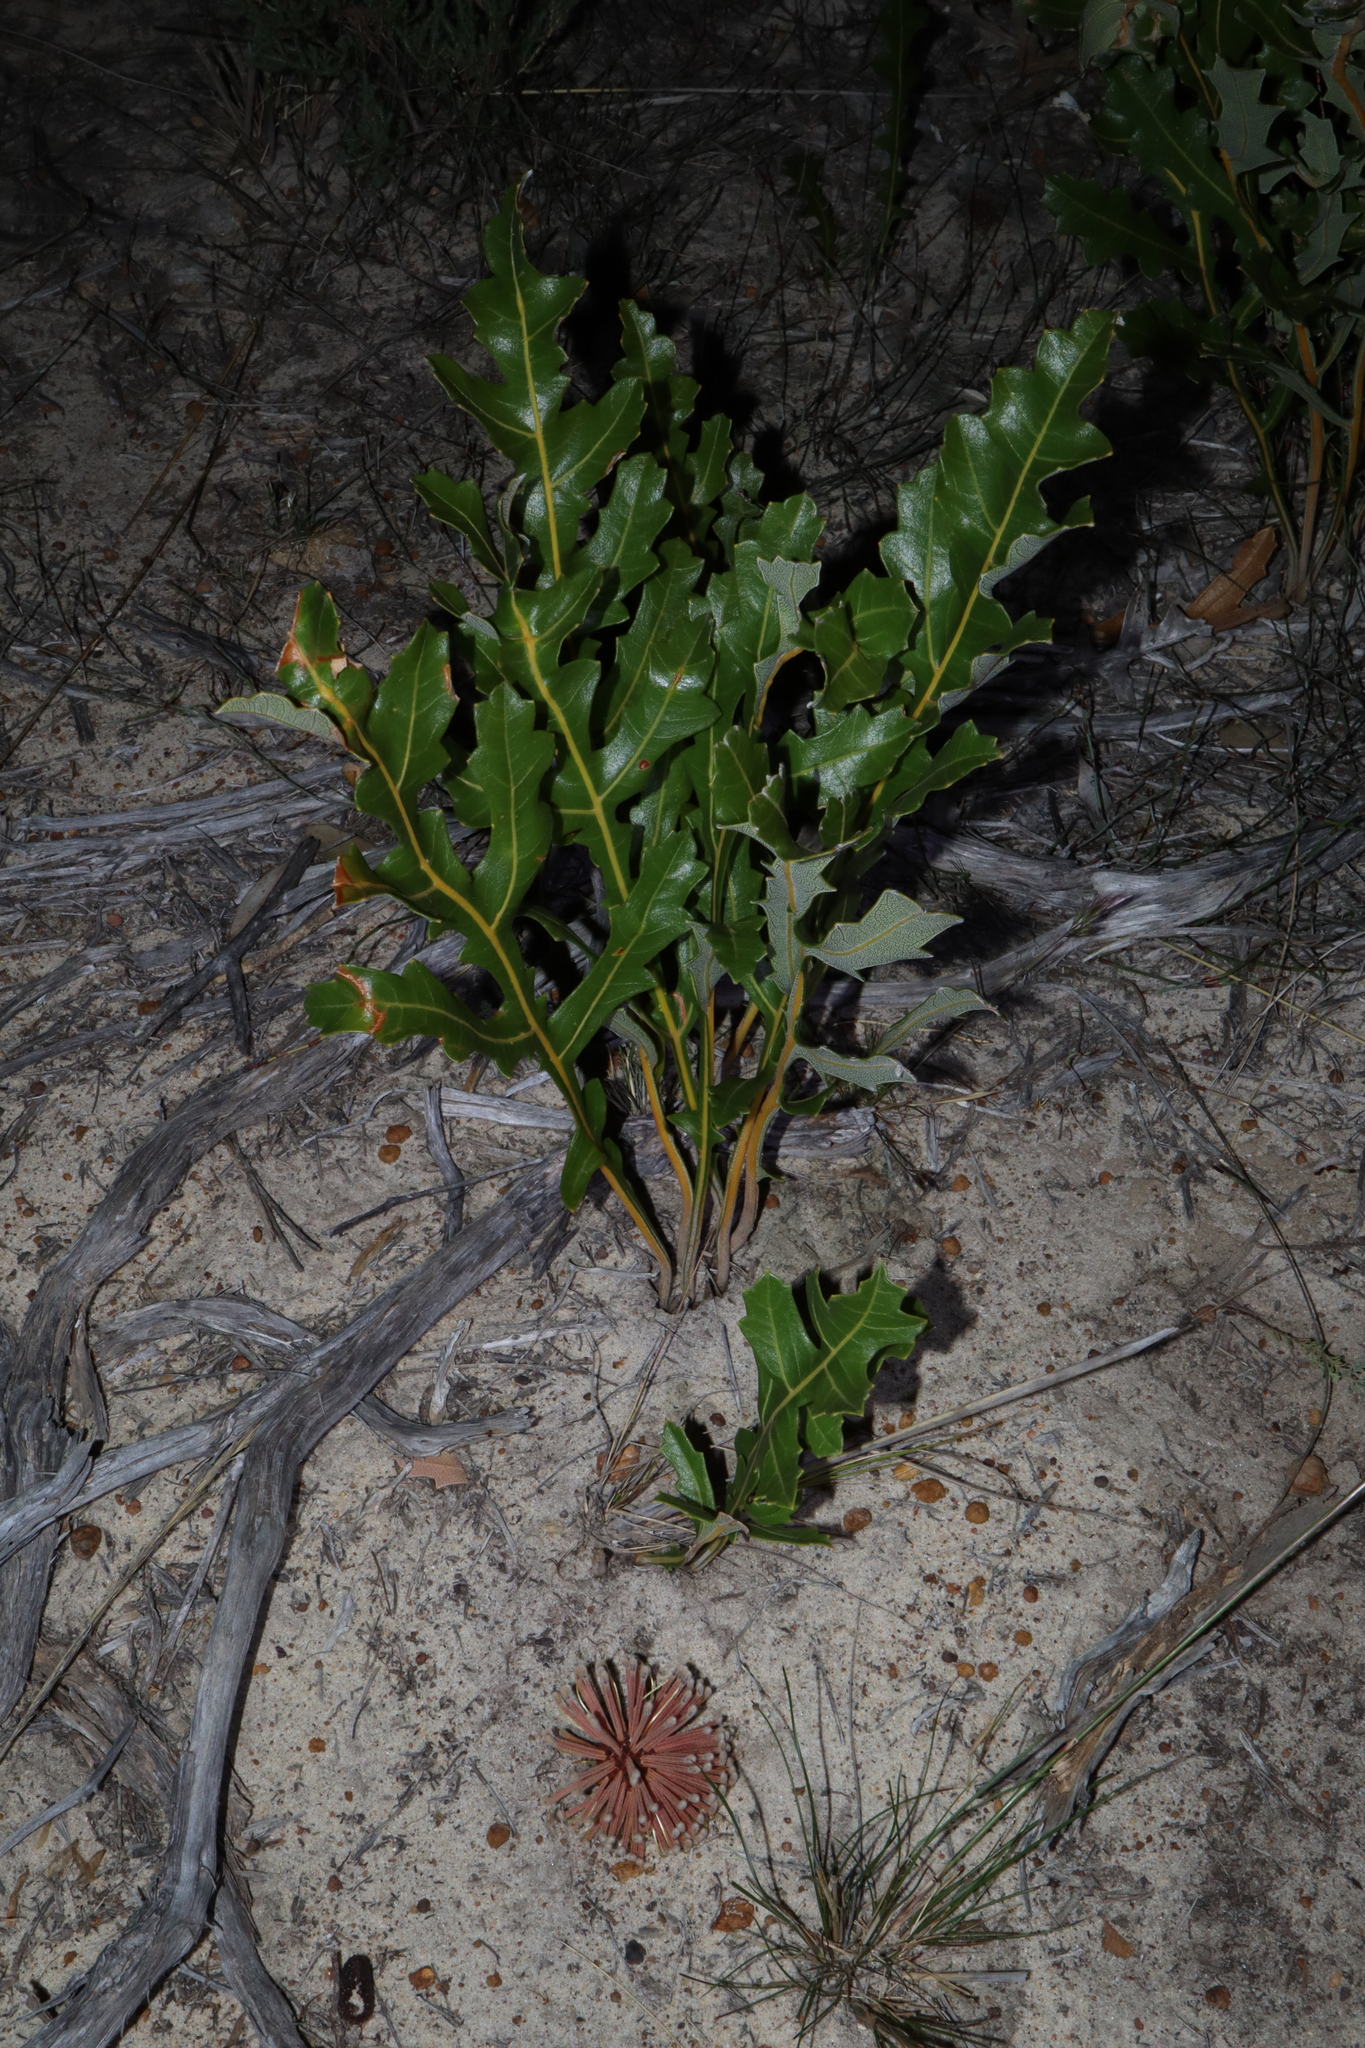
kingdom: Plantae
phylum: Tracheophyta
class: Magnoliopsida
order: Proteales
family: Proteaceae
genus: Banksia
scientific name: Banksia repens
